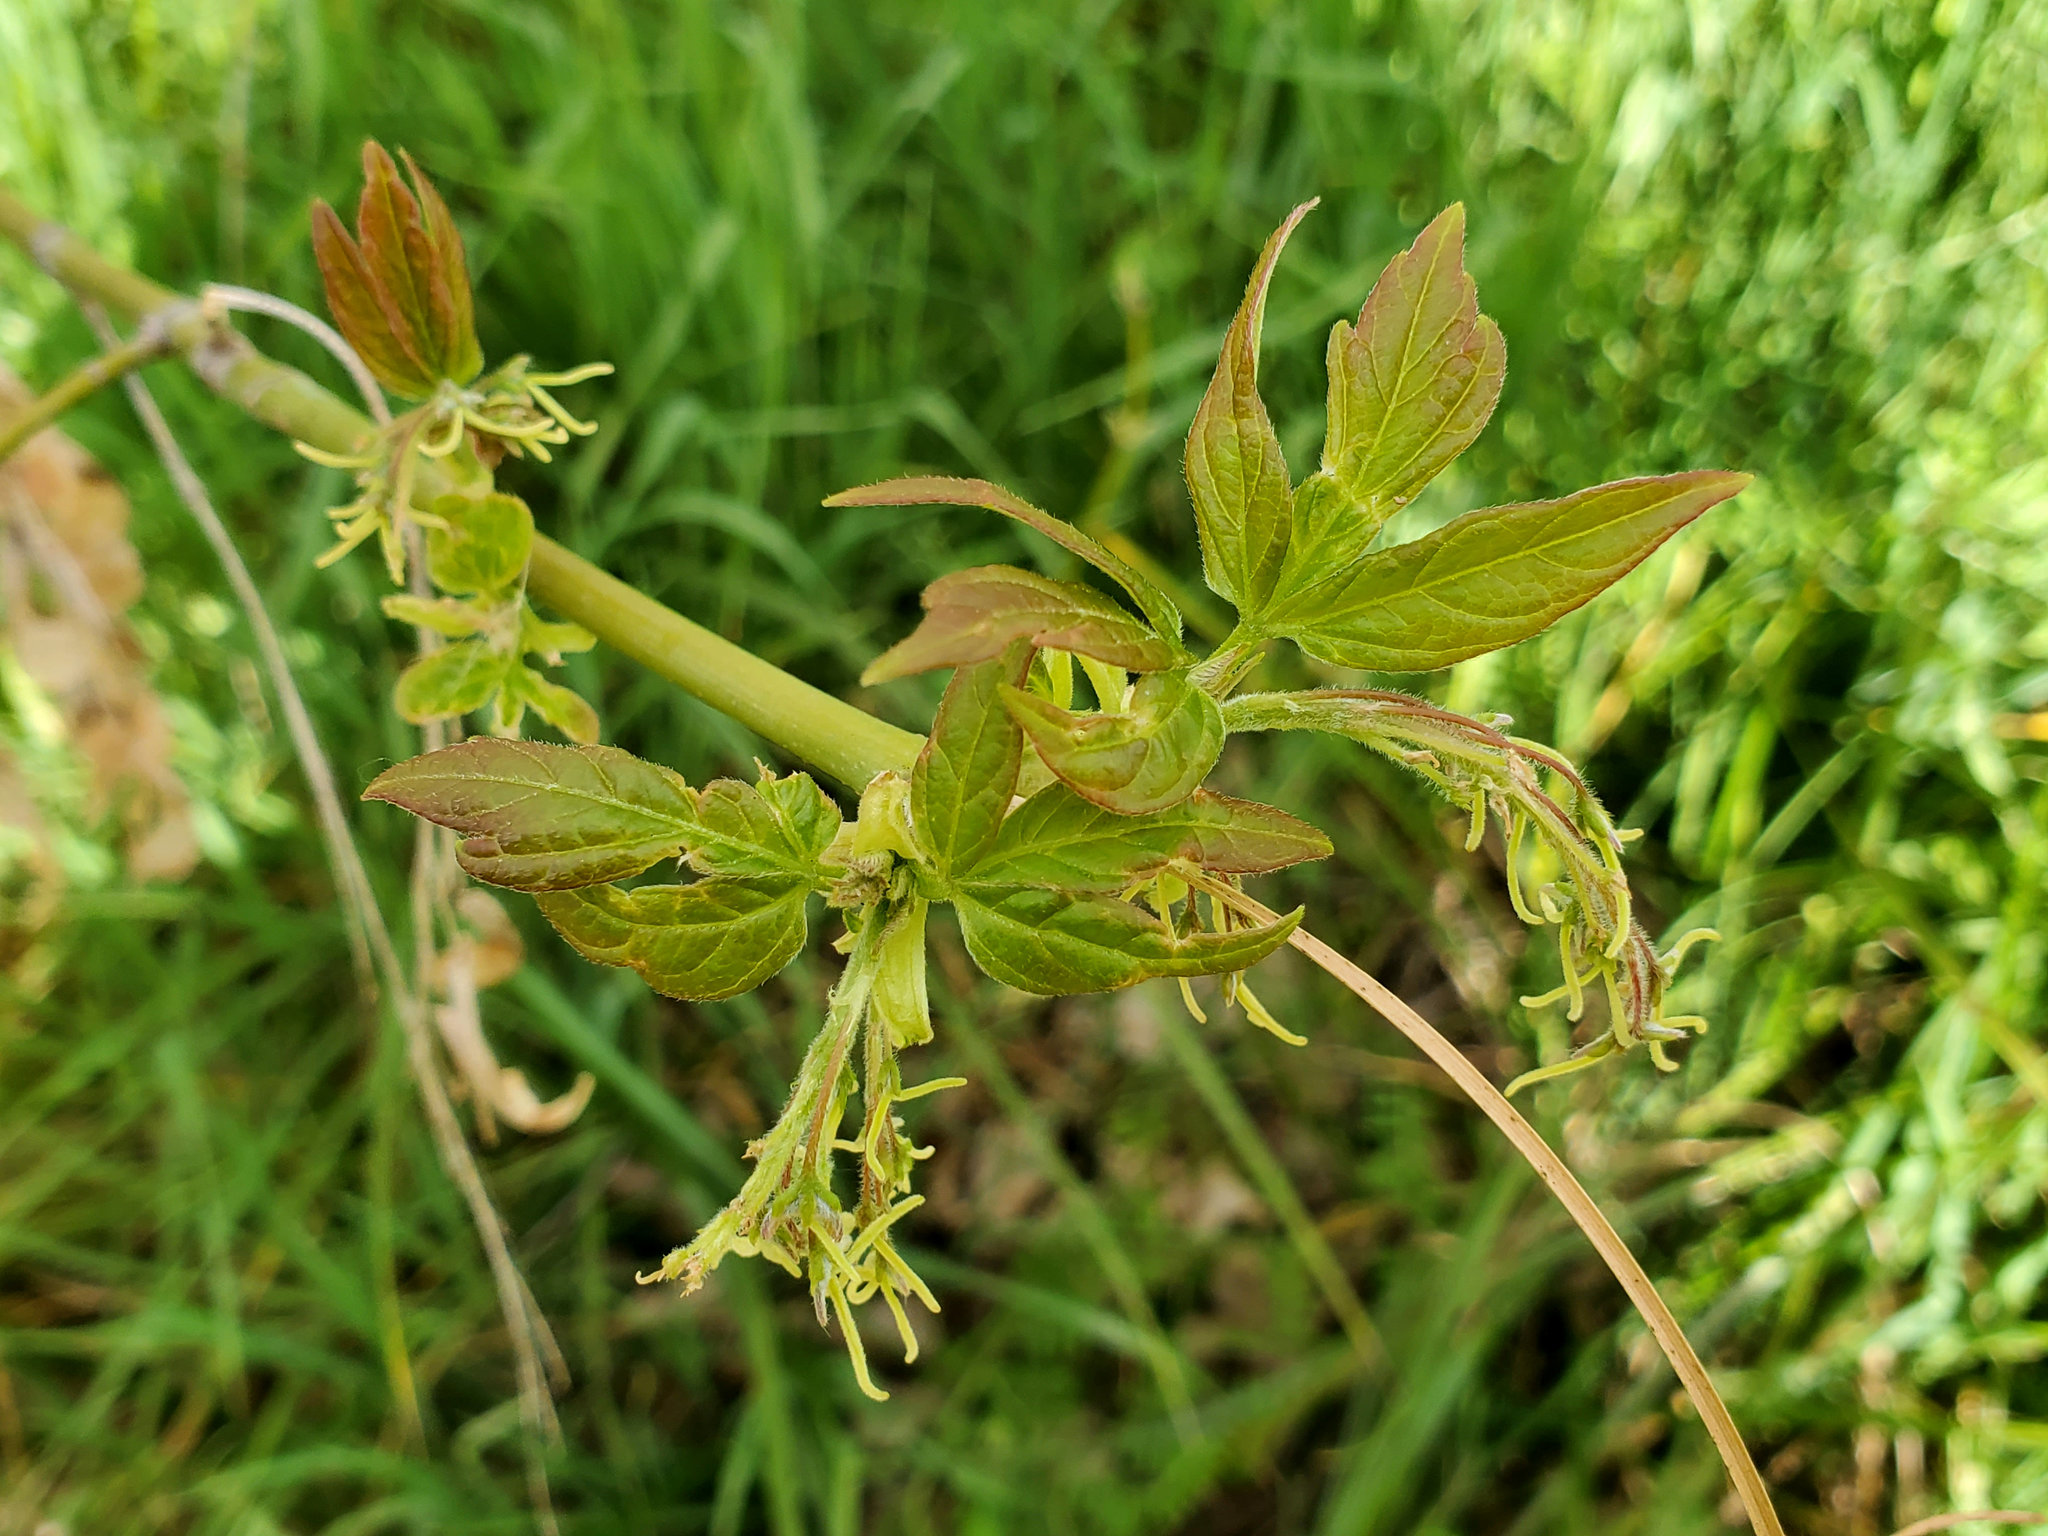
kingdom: Plantae
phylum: Tracheophyta
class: Magnoliopsida
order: Sapindales
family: Sapindaceae
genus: Acer
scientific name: Acer negundo
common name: Ashleaf maple
